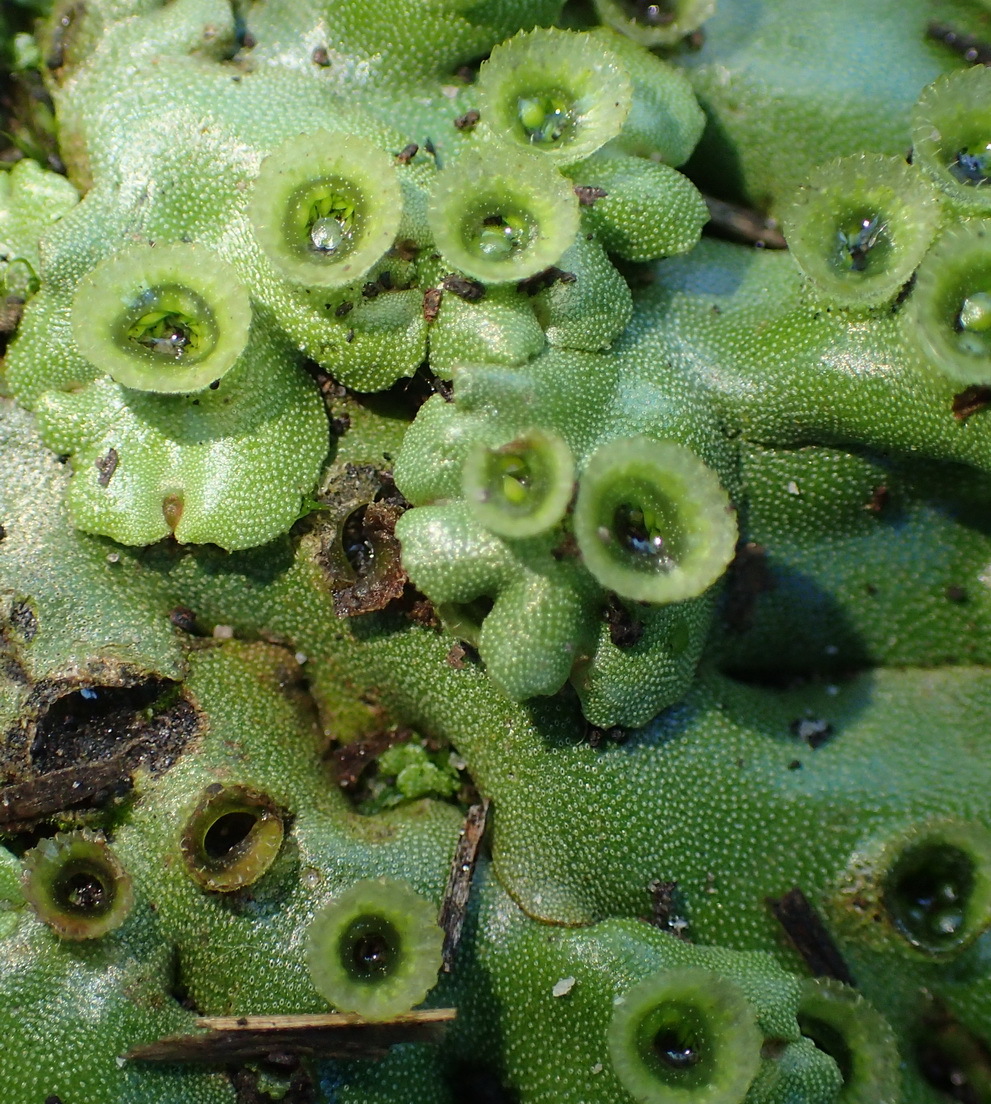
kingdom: Plantae
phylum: Marchantiophyta
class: Marchantiopsida
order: Marchantiales
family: Marchantiaceae
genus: Marchantia
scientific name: Marchantia berteroana
